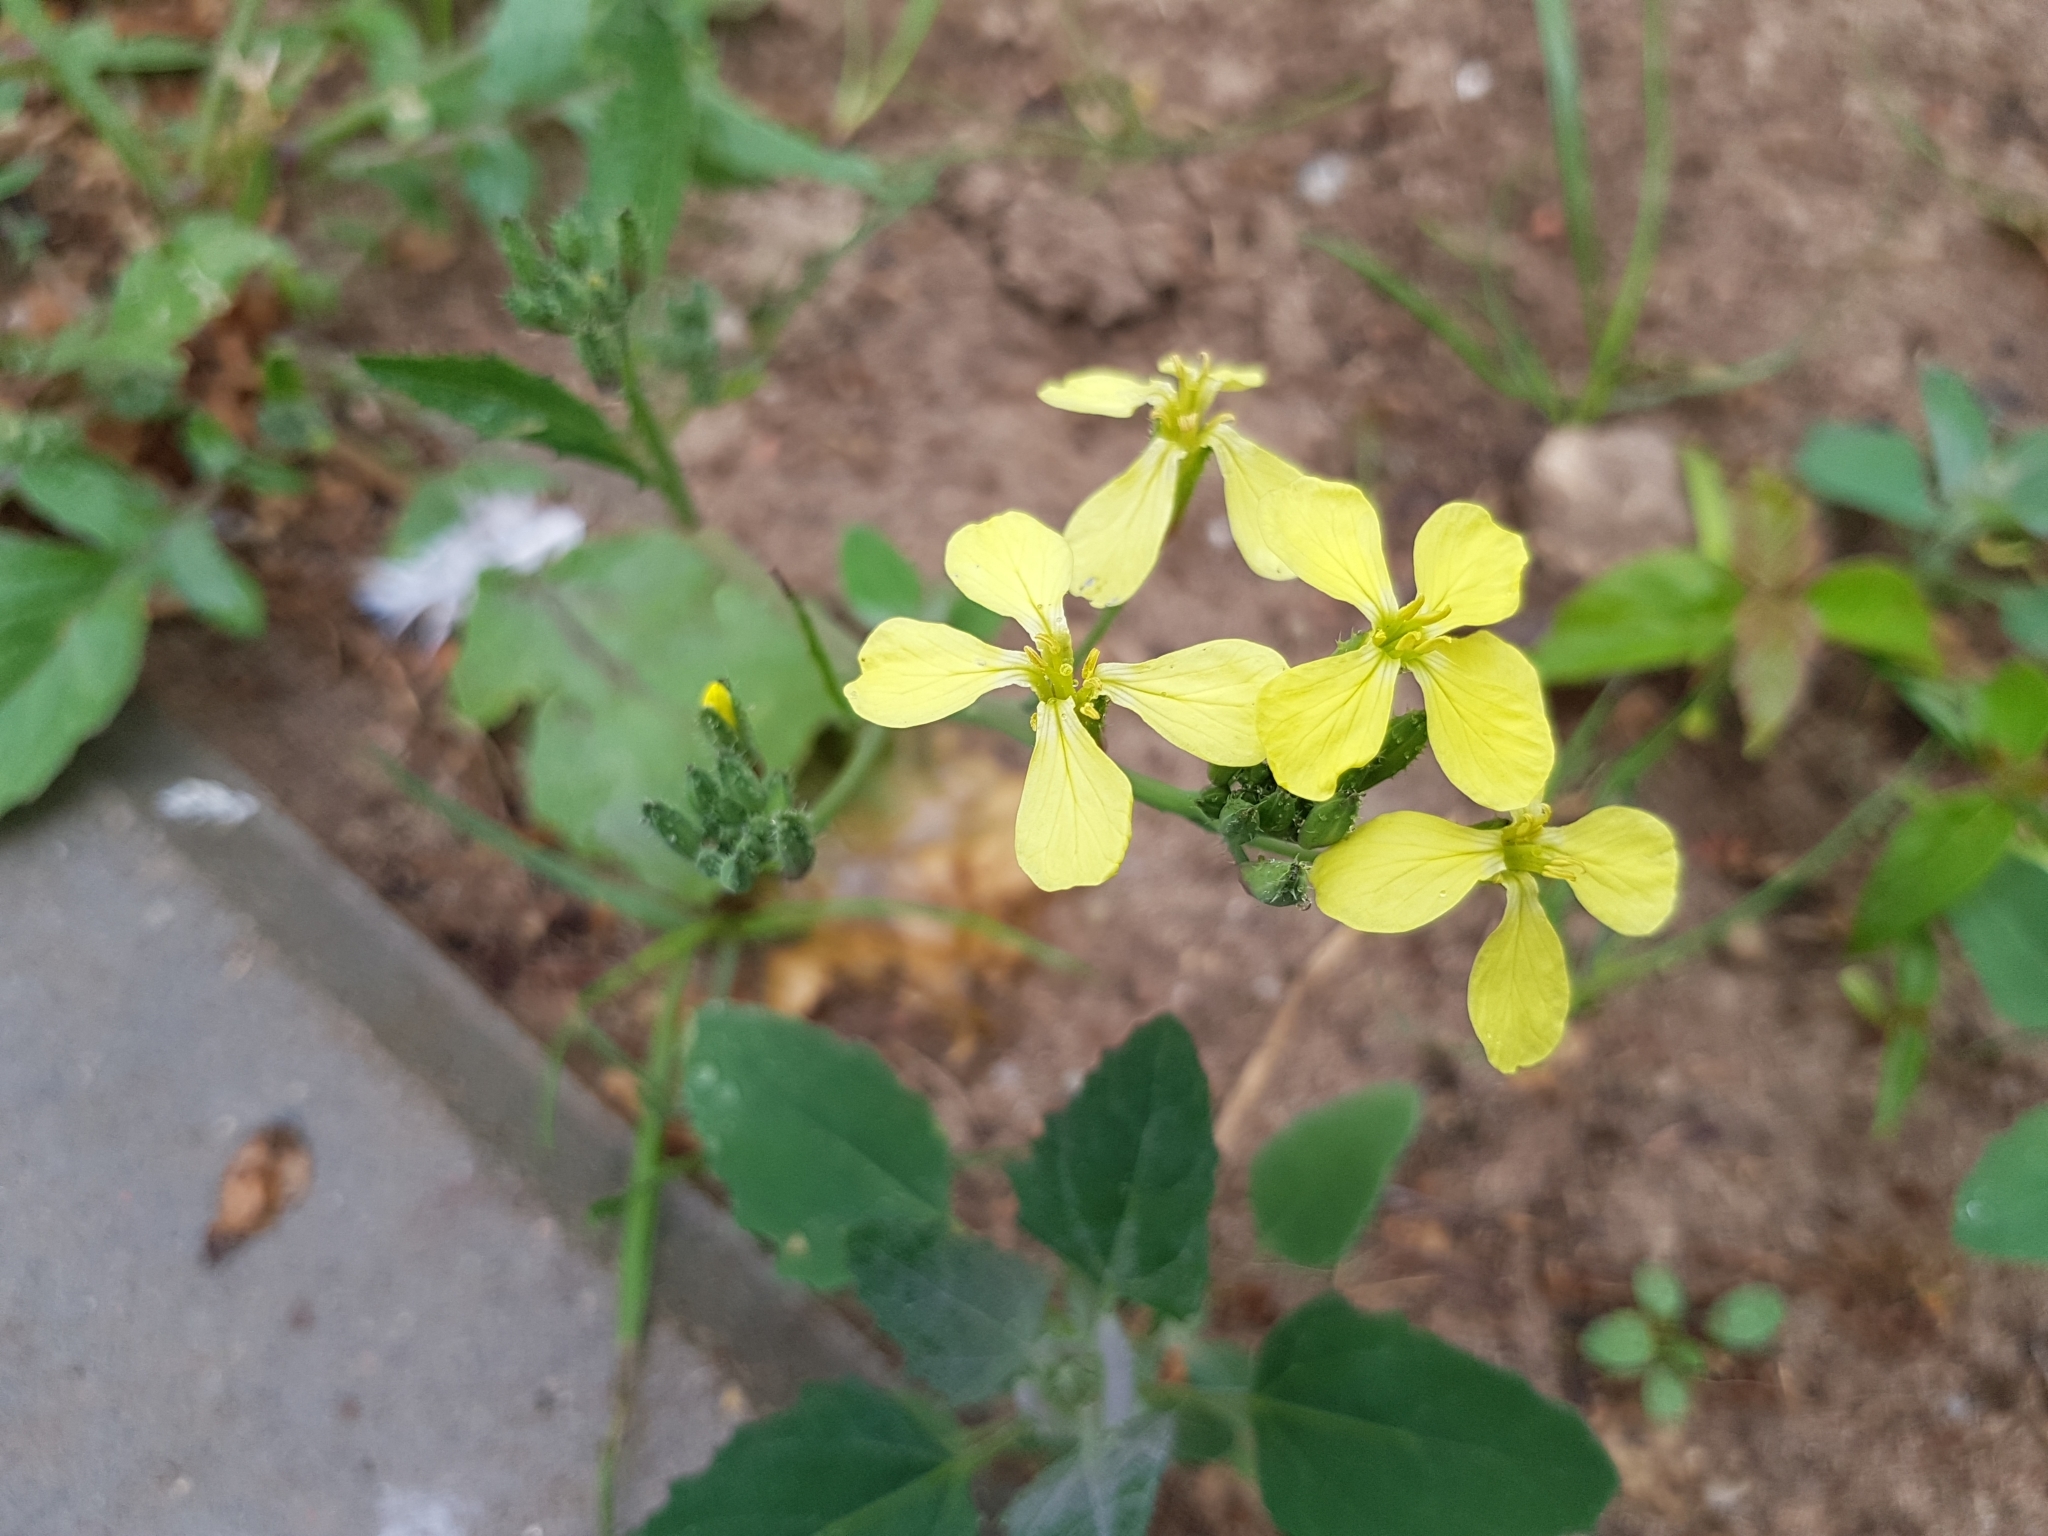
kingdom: Plantae
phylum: Tracheophyta
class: Magnoliopsida
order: Brassicales
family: Brassicaceae
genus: Raphanus
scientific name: Raphanus raphanistrum
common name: Wild radish
